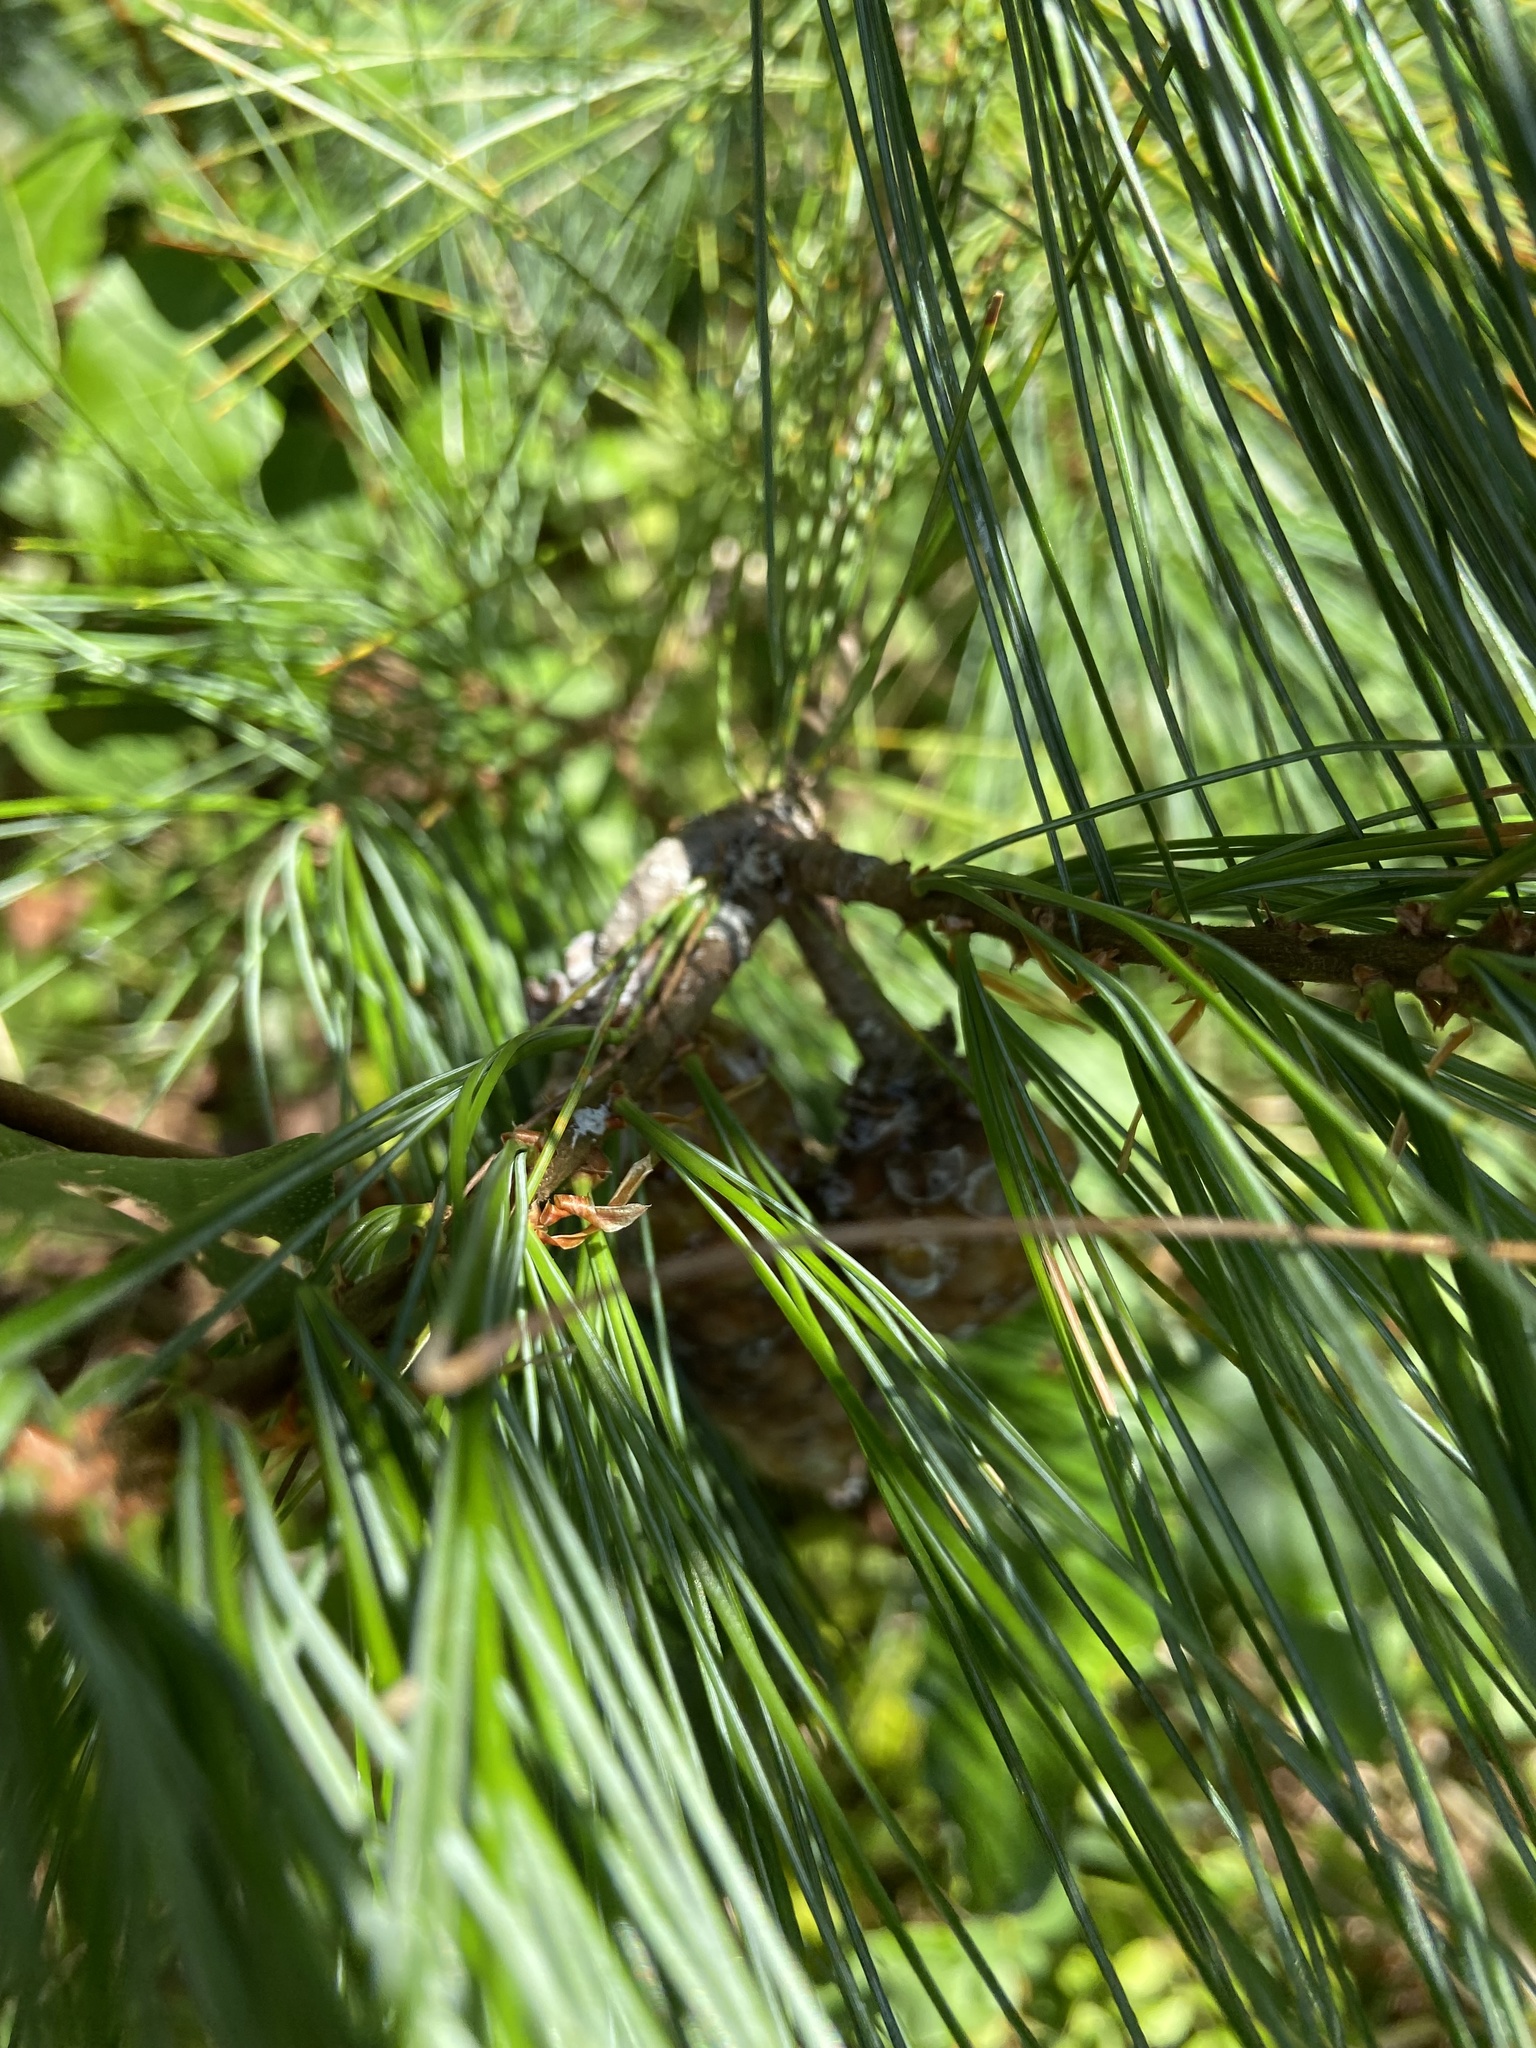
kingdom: Plantae
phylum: Tracheophyta
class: Pinopsida
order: Pinales
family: Pinaceae
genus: Pinus
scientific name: Pinus strobus
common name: Weymouth pine
